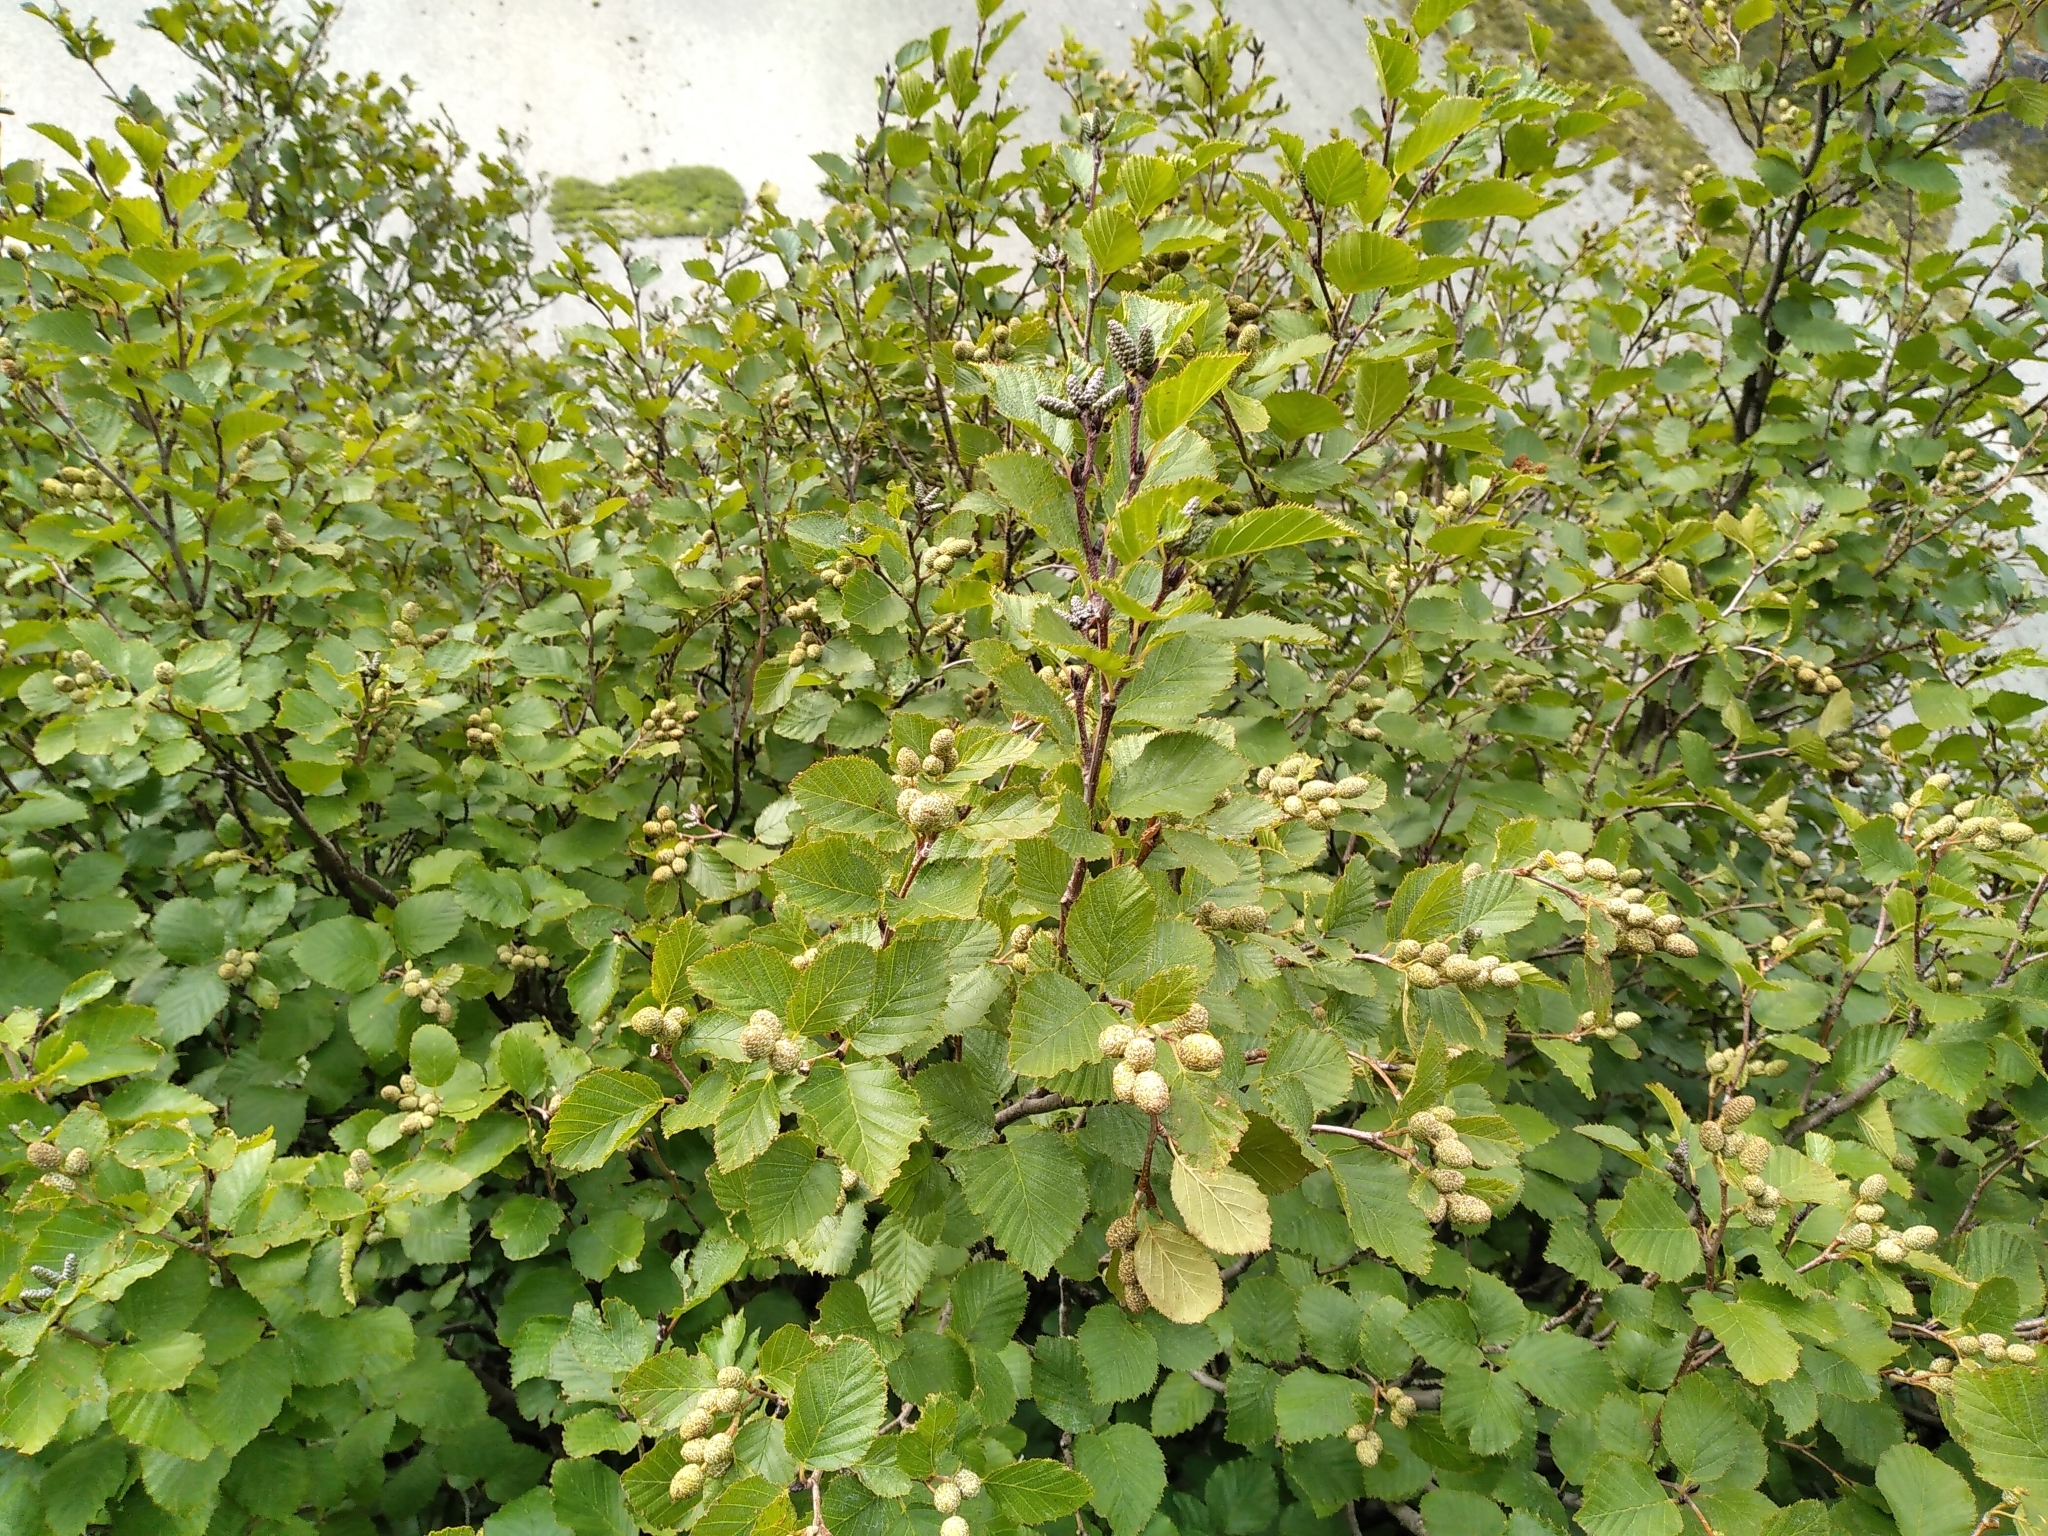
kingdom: Plantae
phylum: Tracheophyta
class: Magnoliopsida
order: Fagales
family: Betulaceae
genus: Alnus
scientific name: Alnus alnobetula
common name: Green alder
